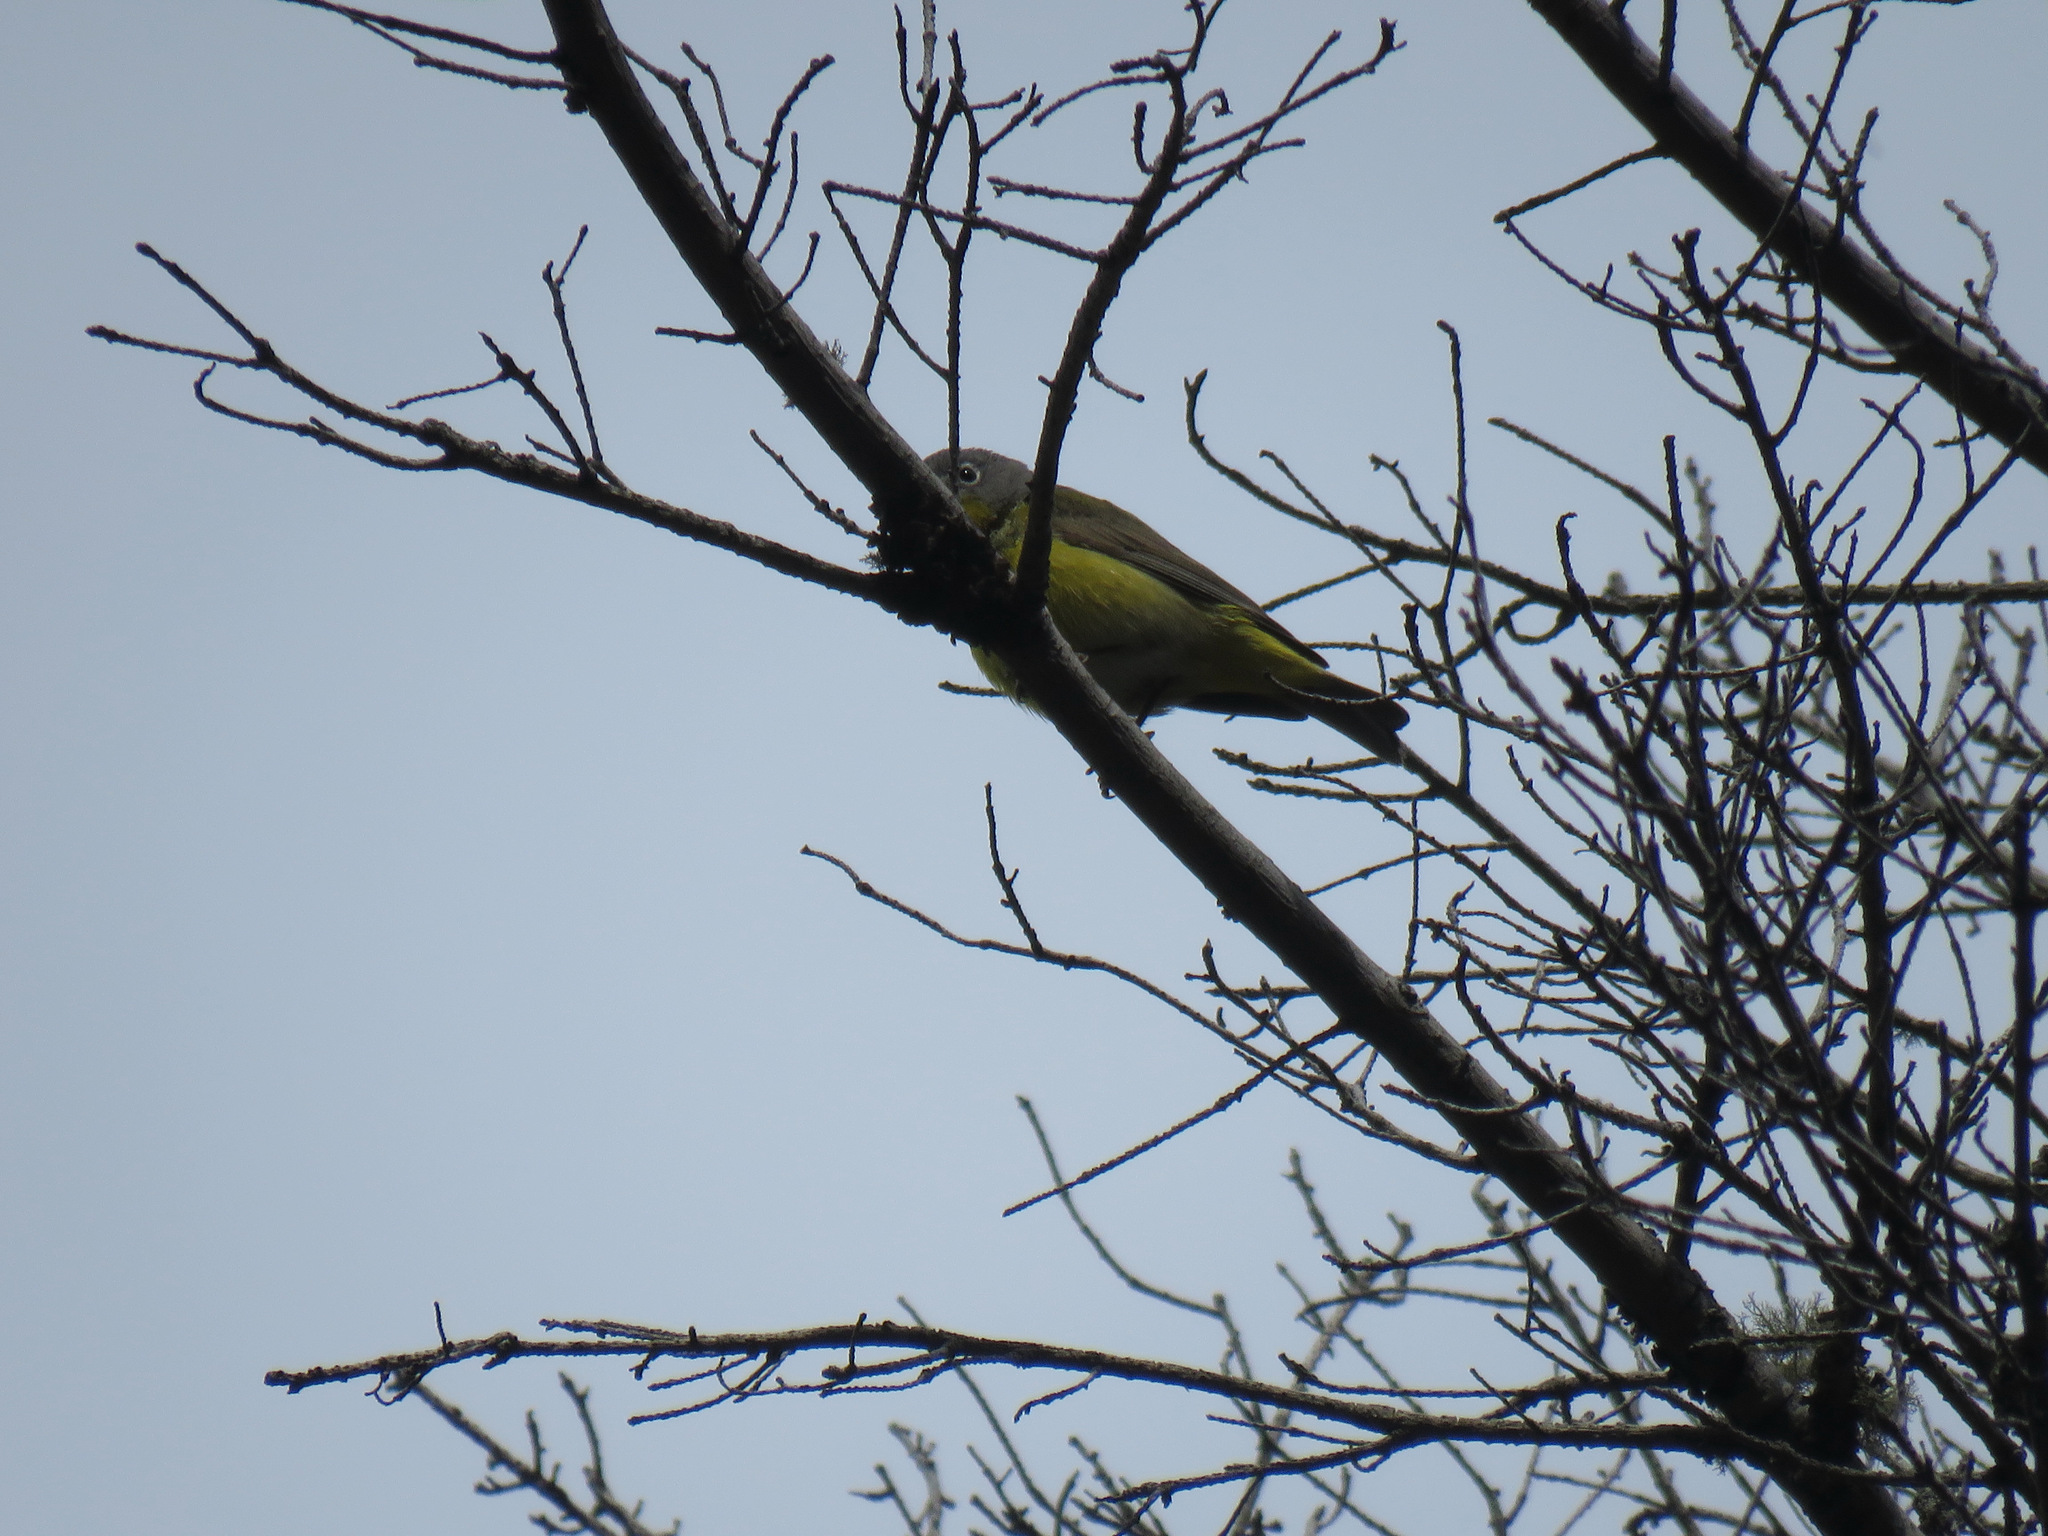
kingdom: Animalia
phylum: Chordata
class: Aves
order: Passeriformes
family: Parulidae
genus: Leiothlypis
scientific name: Leiothlypis ruficapilla
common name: Nashville warbler
